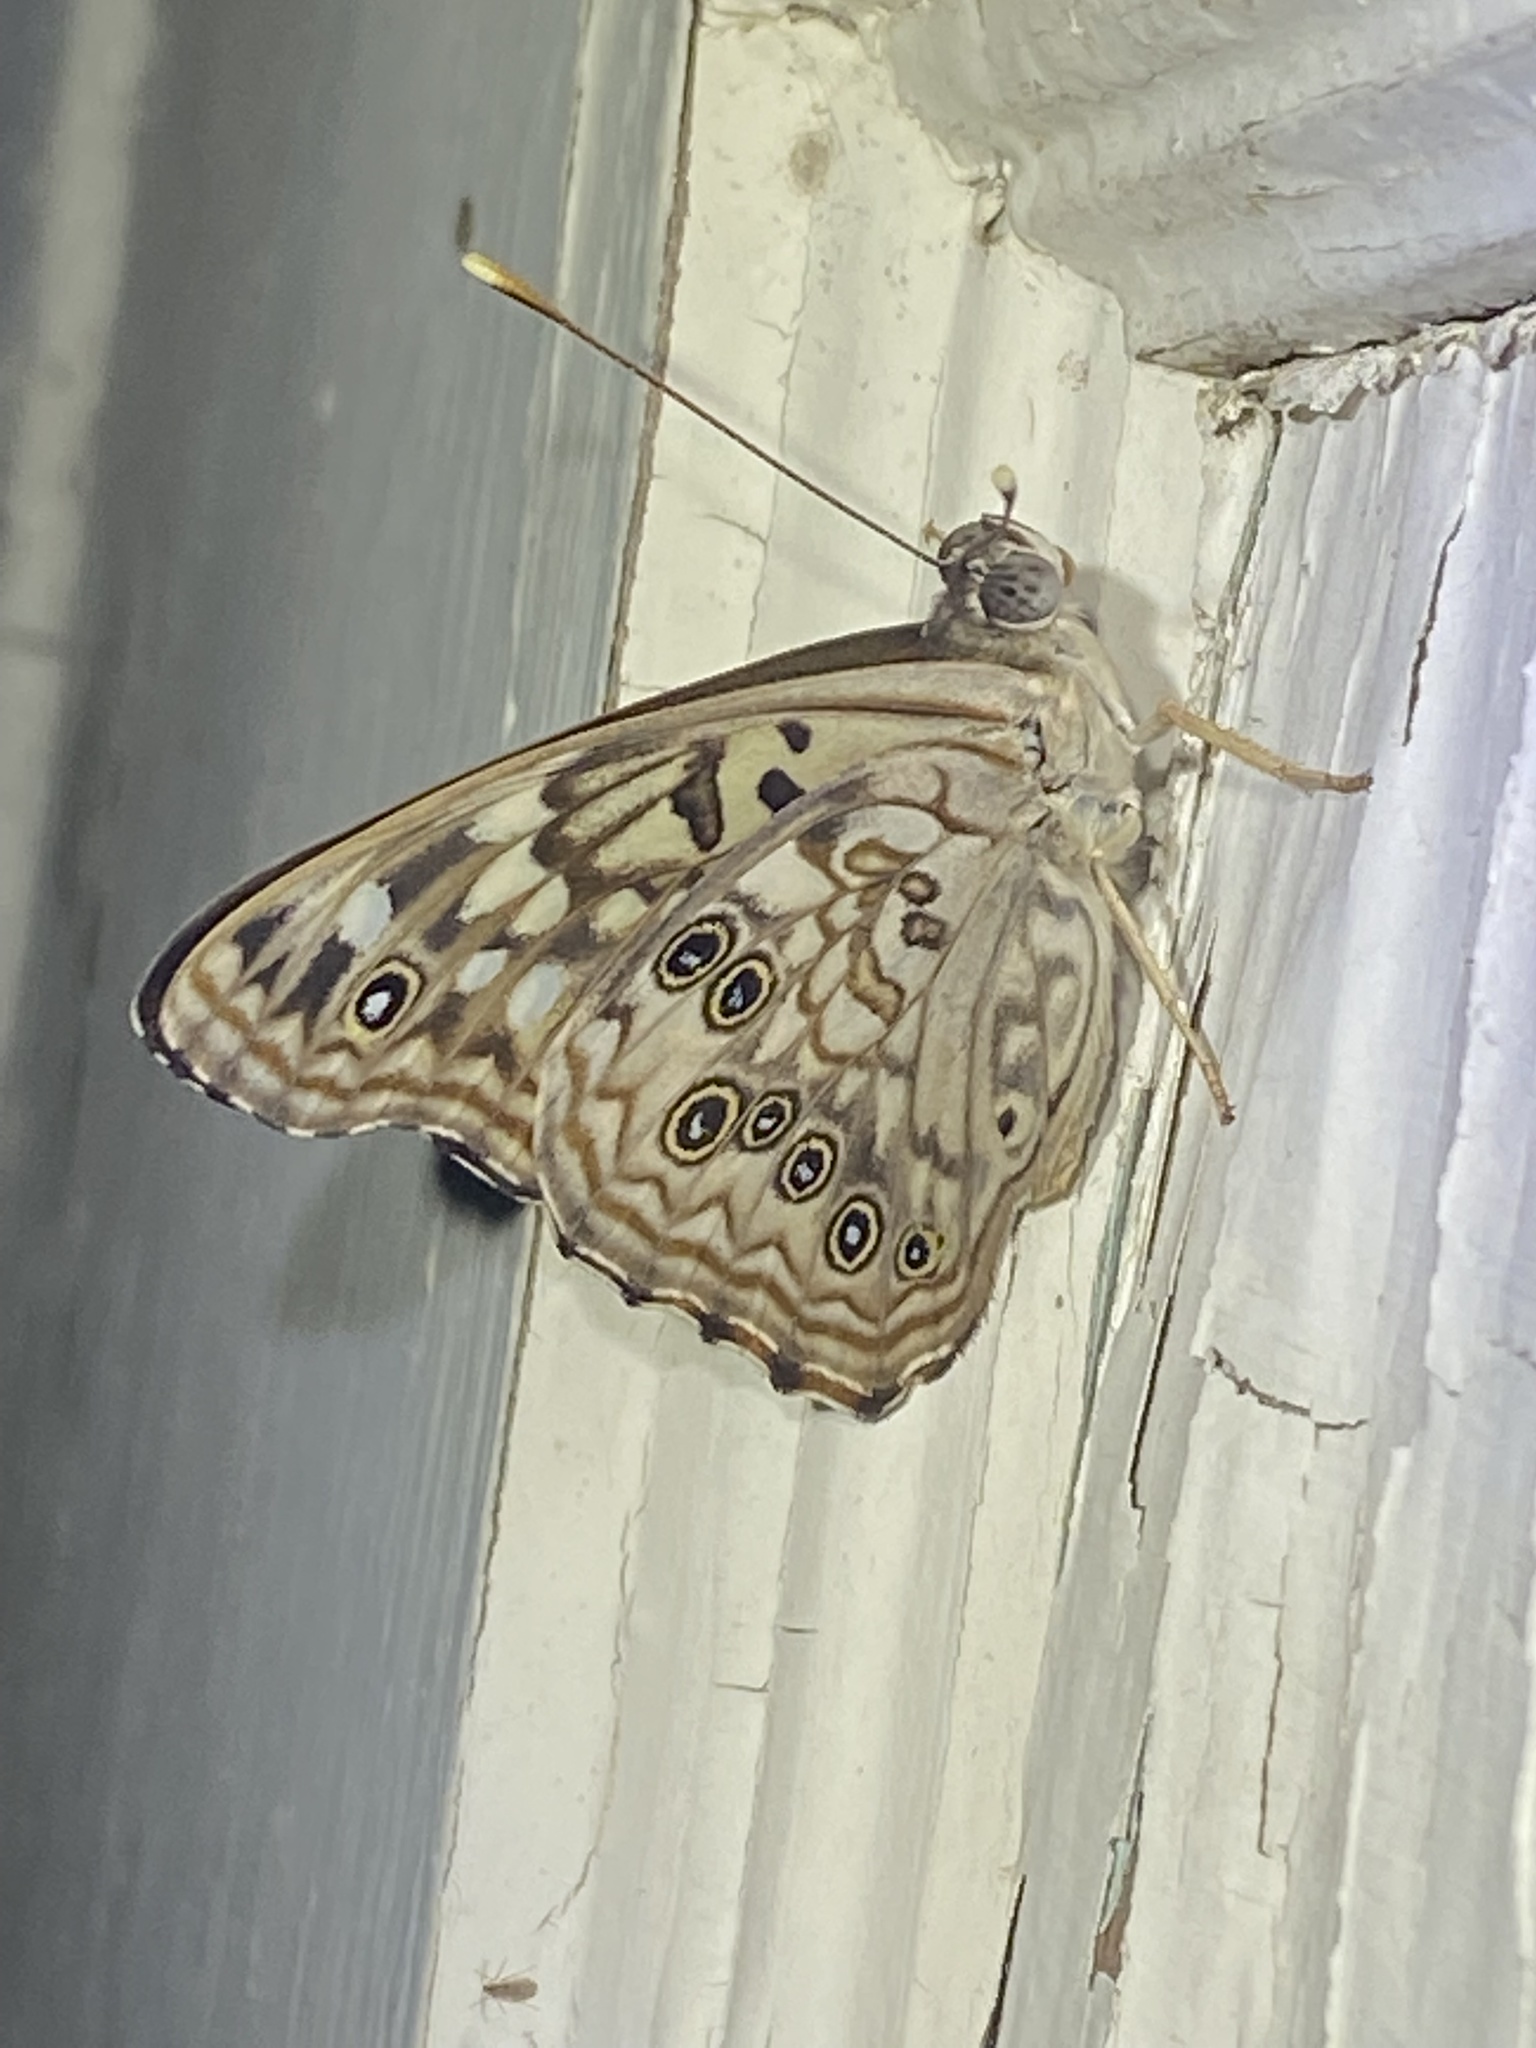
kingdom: Animalia
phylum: Arthropoda
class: Insecta
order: Lepidoptera
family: Nymphalidae
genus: Asterocampa
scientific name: Asterocampa celtis
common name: Hackberry emperor
